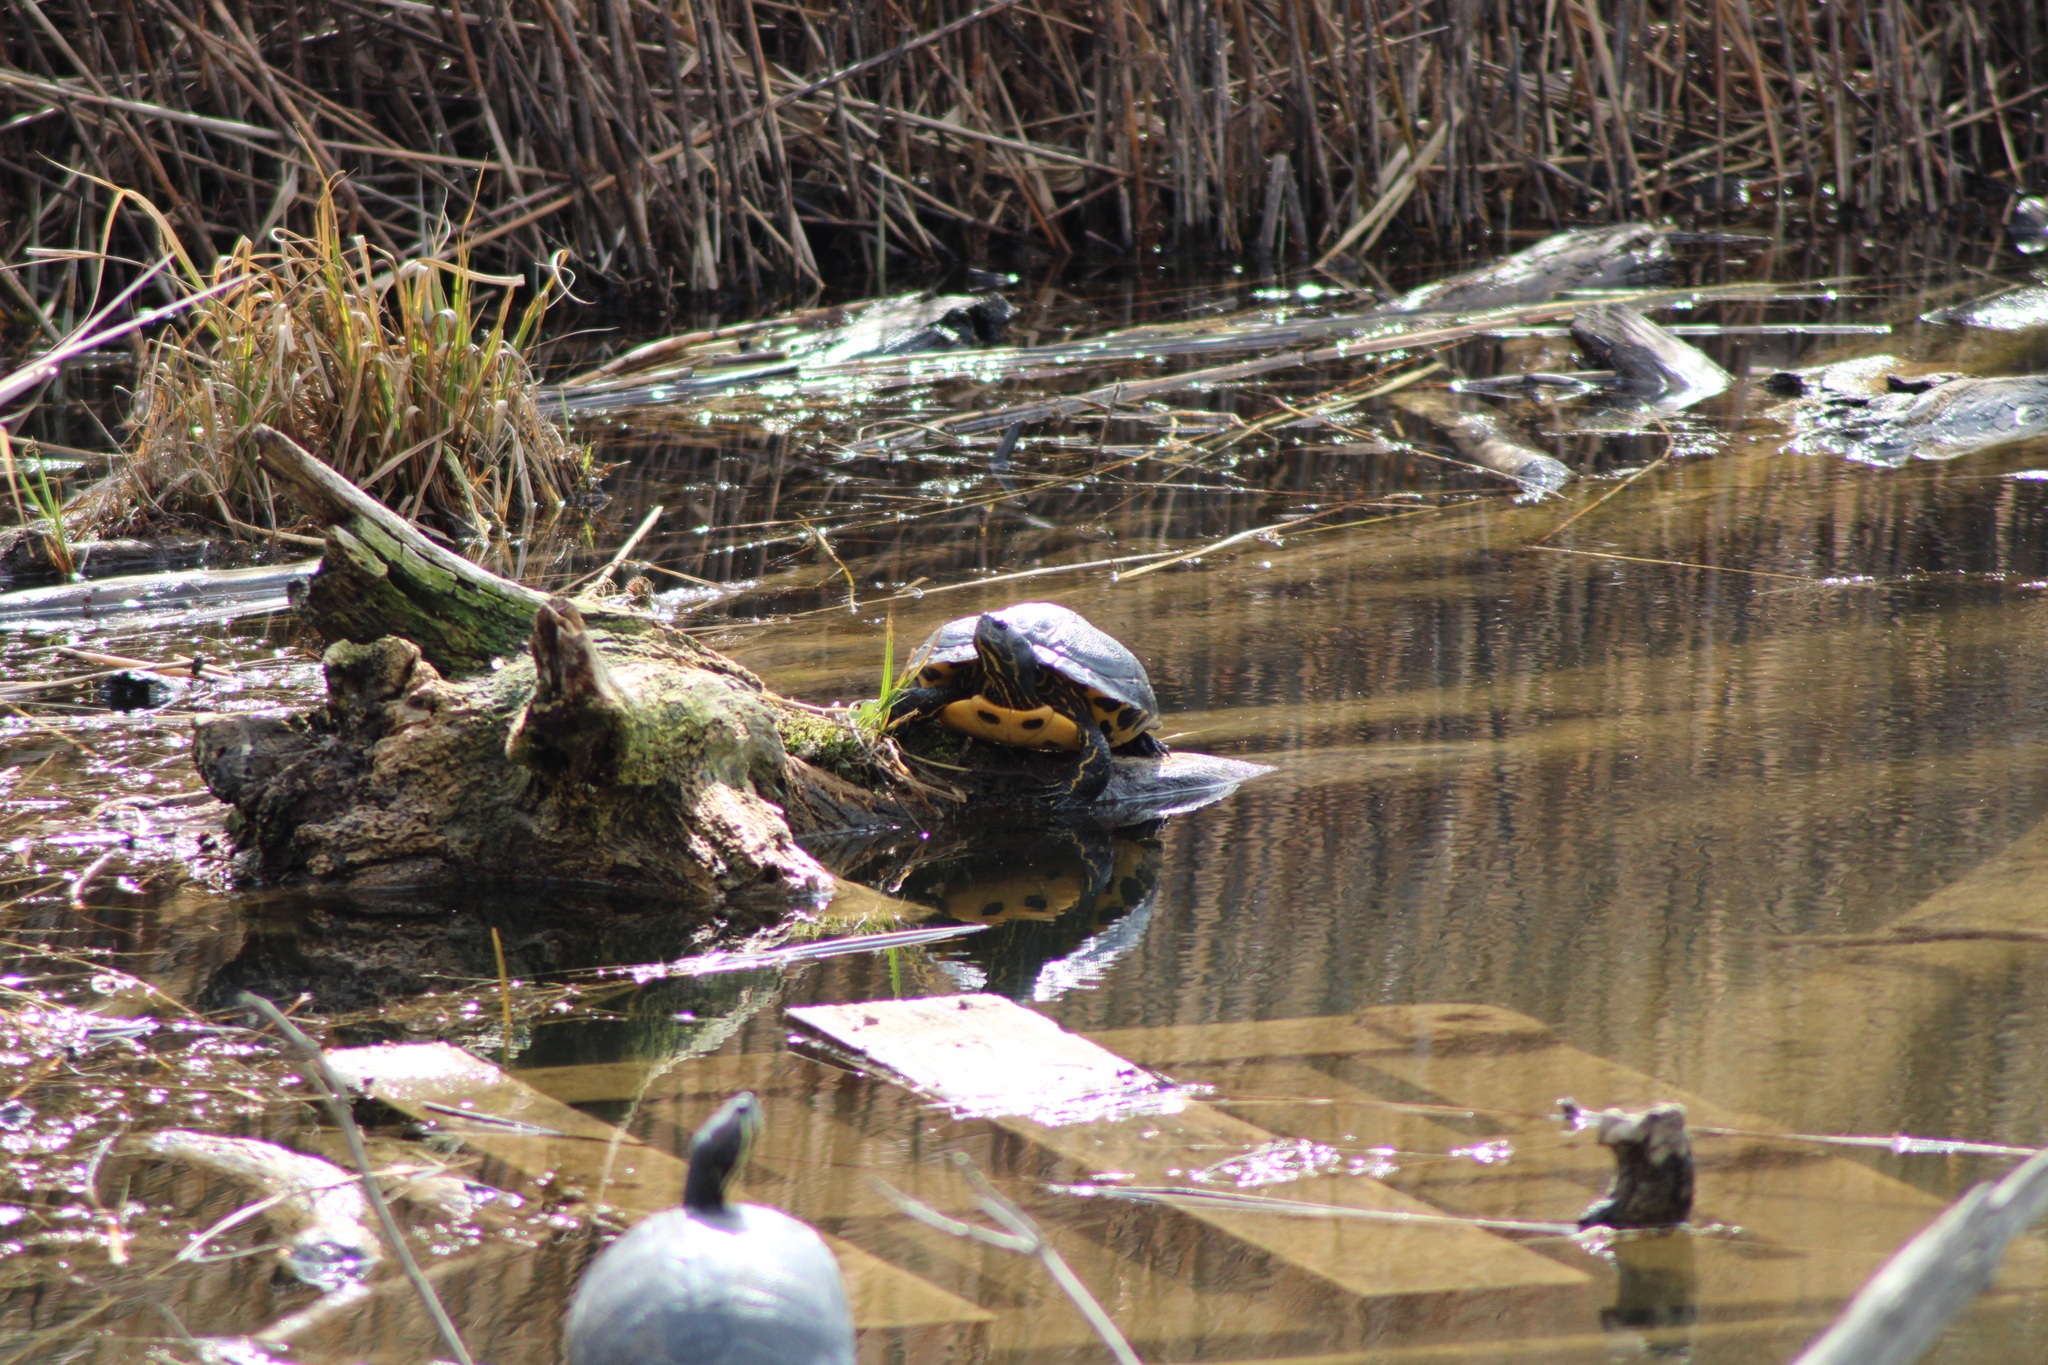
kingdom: Animalia
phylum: Chordata
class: Testudines
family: Emydidae
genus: Trachemys
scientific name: Trachemys scripta
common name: Slider
